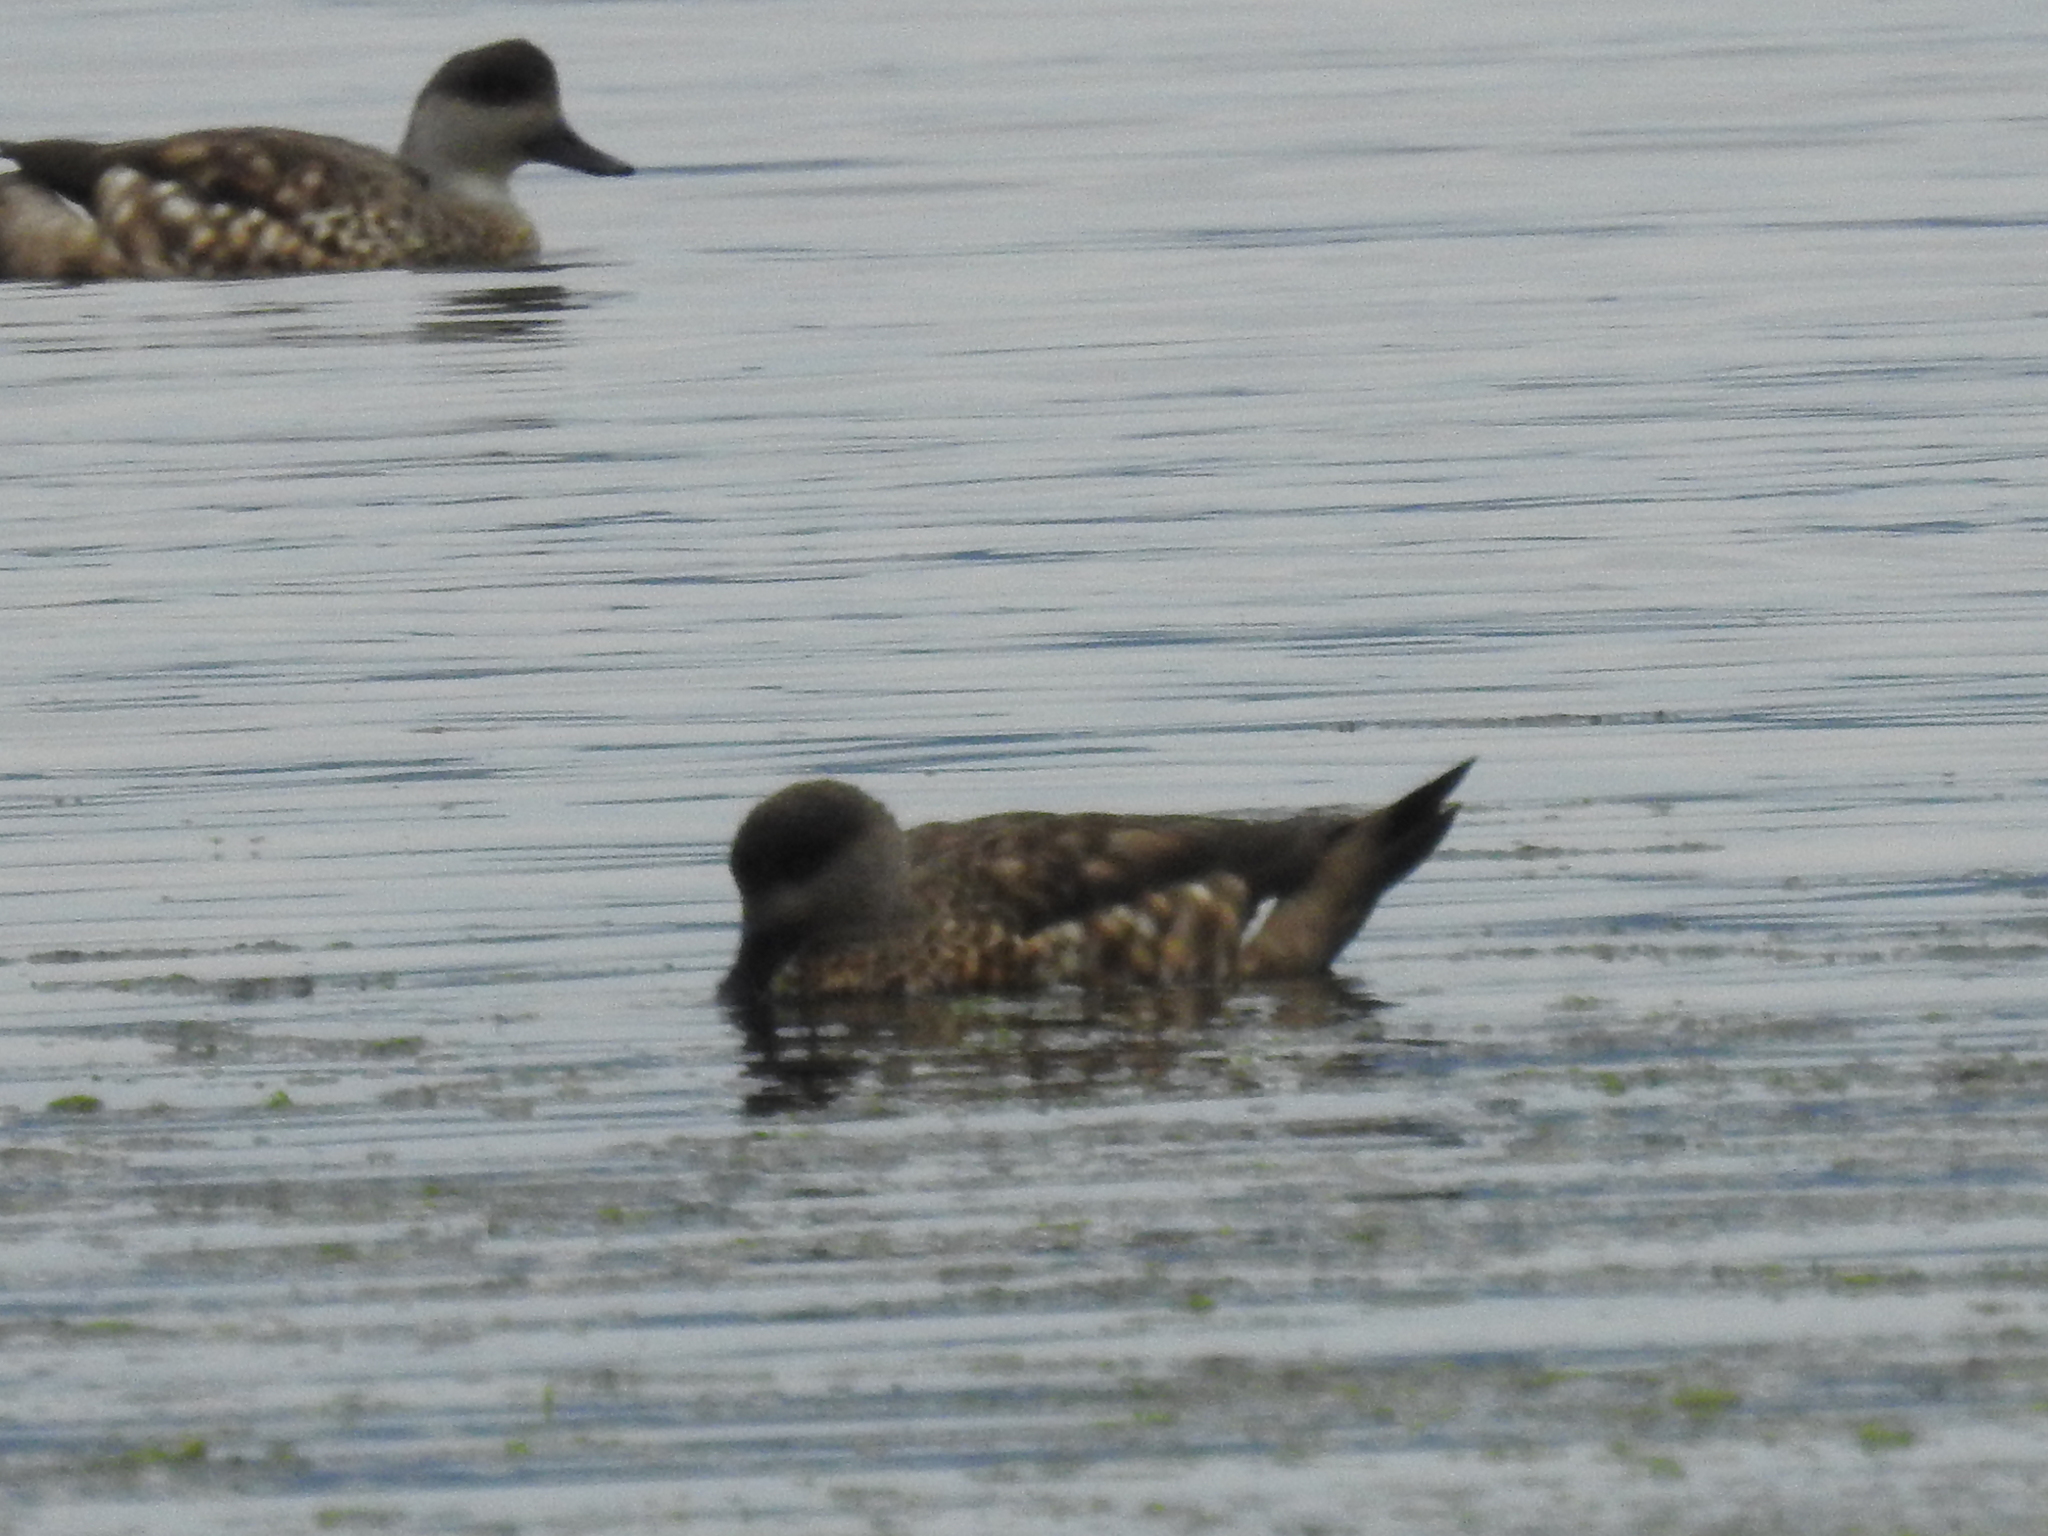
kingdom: Animalia
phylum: Chordata
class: Aves
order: Anseriformes
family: Anatidae
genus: Lophonetta
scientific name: Lophonetta specularioides
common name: Crested duck
